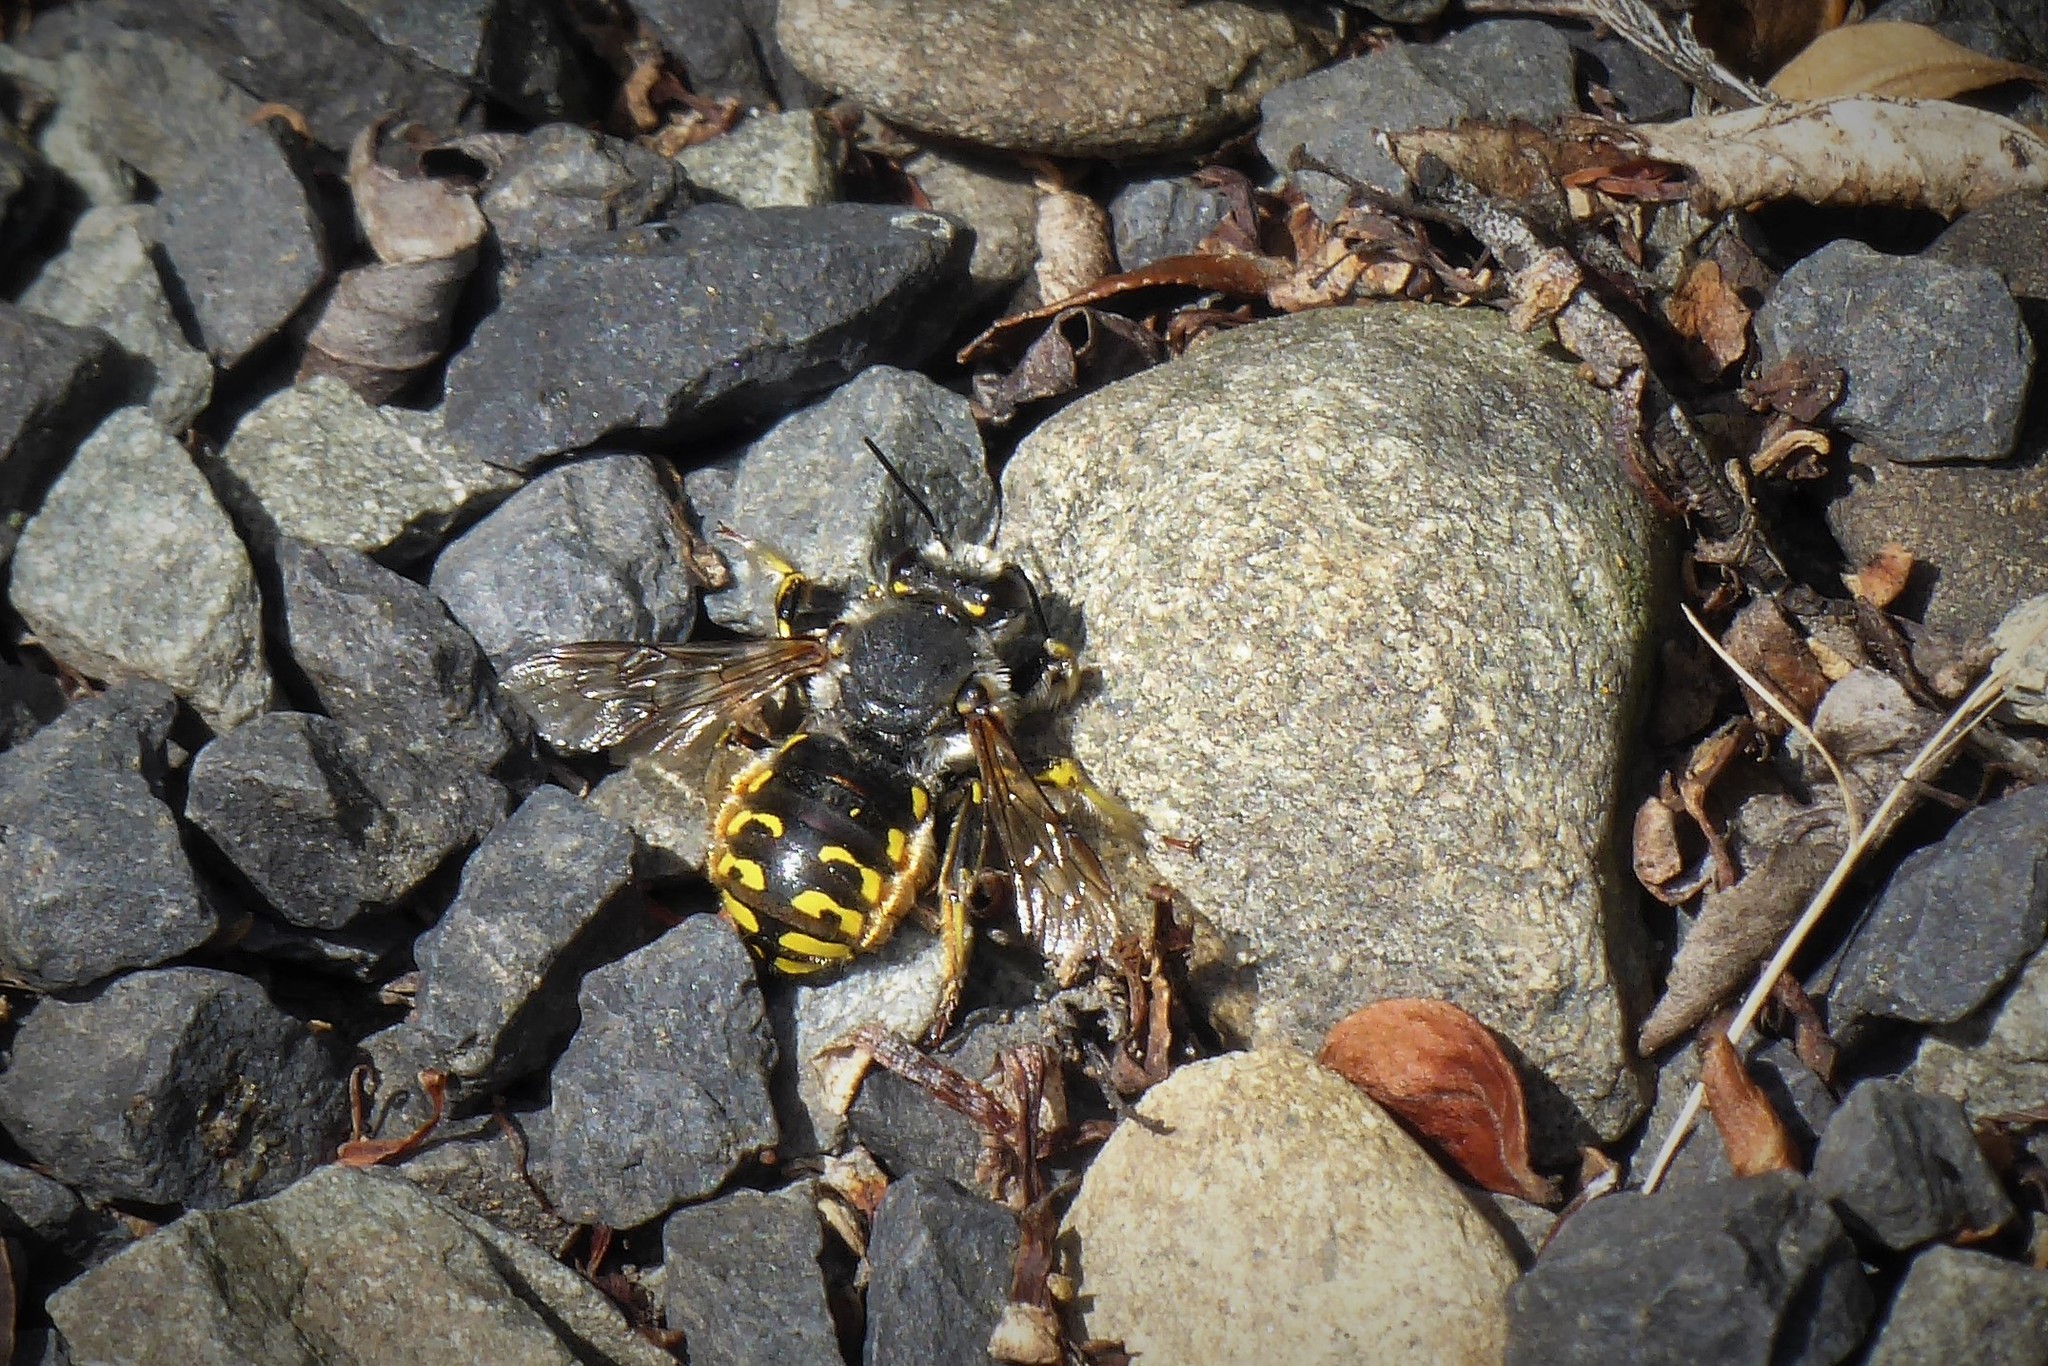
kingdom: Animalia
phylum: Arthropoda
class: Insecta
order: Hymenoptera
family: Megachilidae
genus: Anthidium
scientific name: Anthidium manicatum
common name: Wool carder bee
